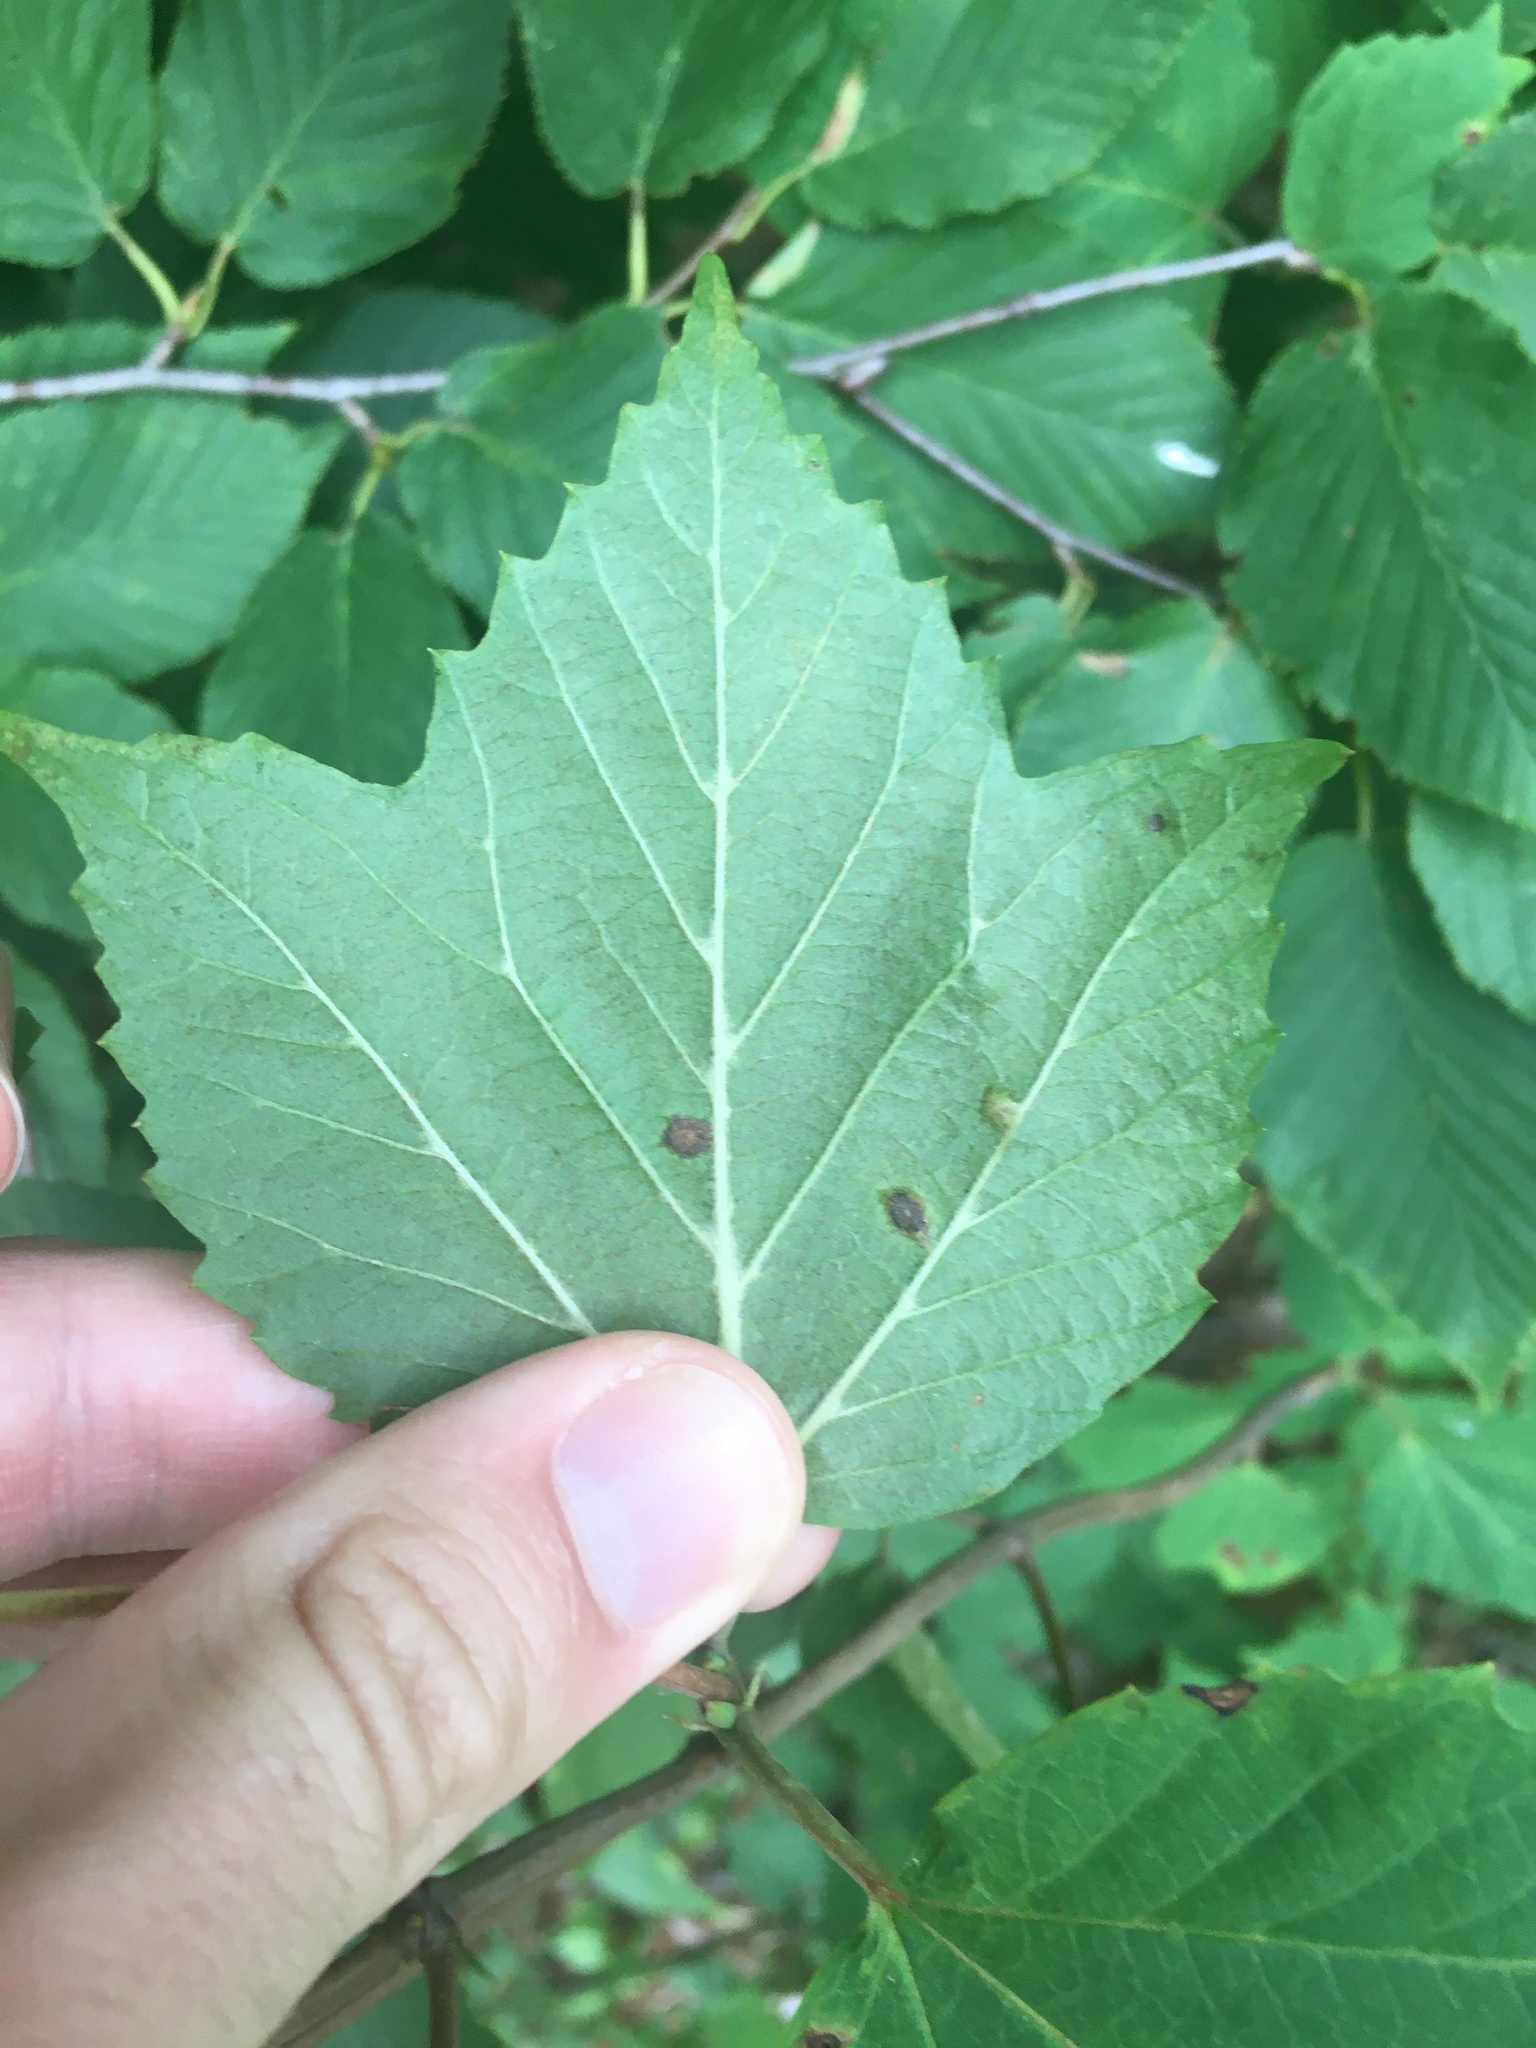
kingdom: Plantae
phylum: Tracheophyta
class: Magnoliopsida
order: Dipsacales
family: Viburnaceae
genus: Viburnum
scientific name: Viburnum acerifolium
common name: Dockmackie
